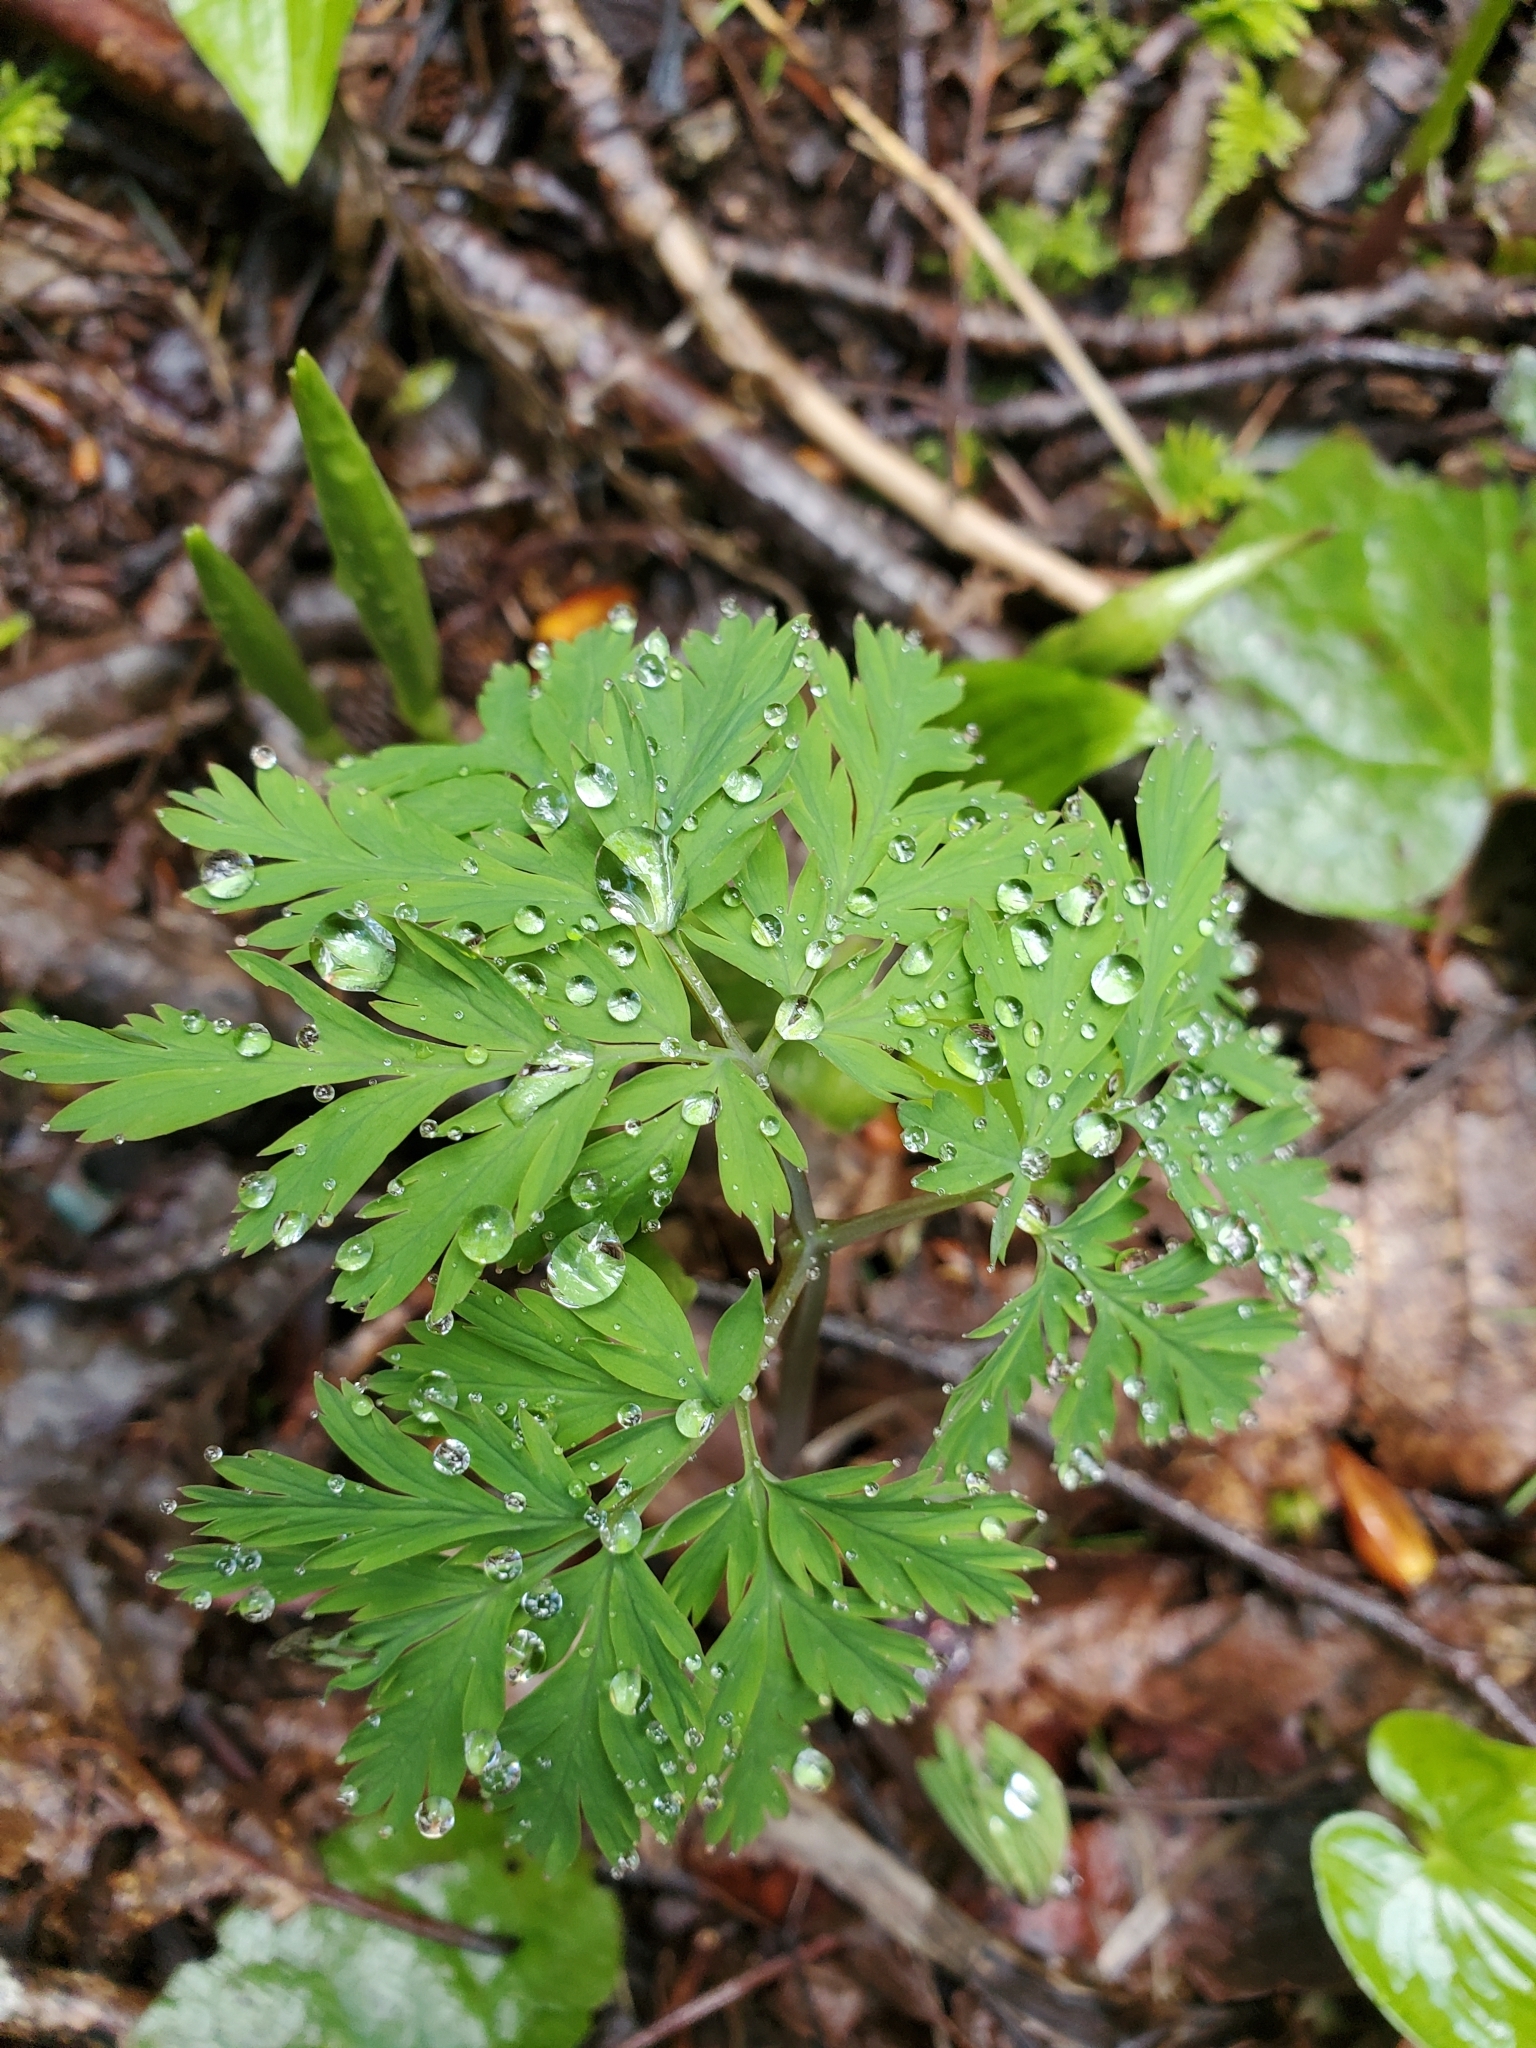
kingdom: Plantae
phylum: Tracheophyta
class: Magnoliopsida
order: Ranunculales
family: Papaveraceae
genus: Dicentra
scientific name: Dicentra formosa
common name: Bleeding-heart
